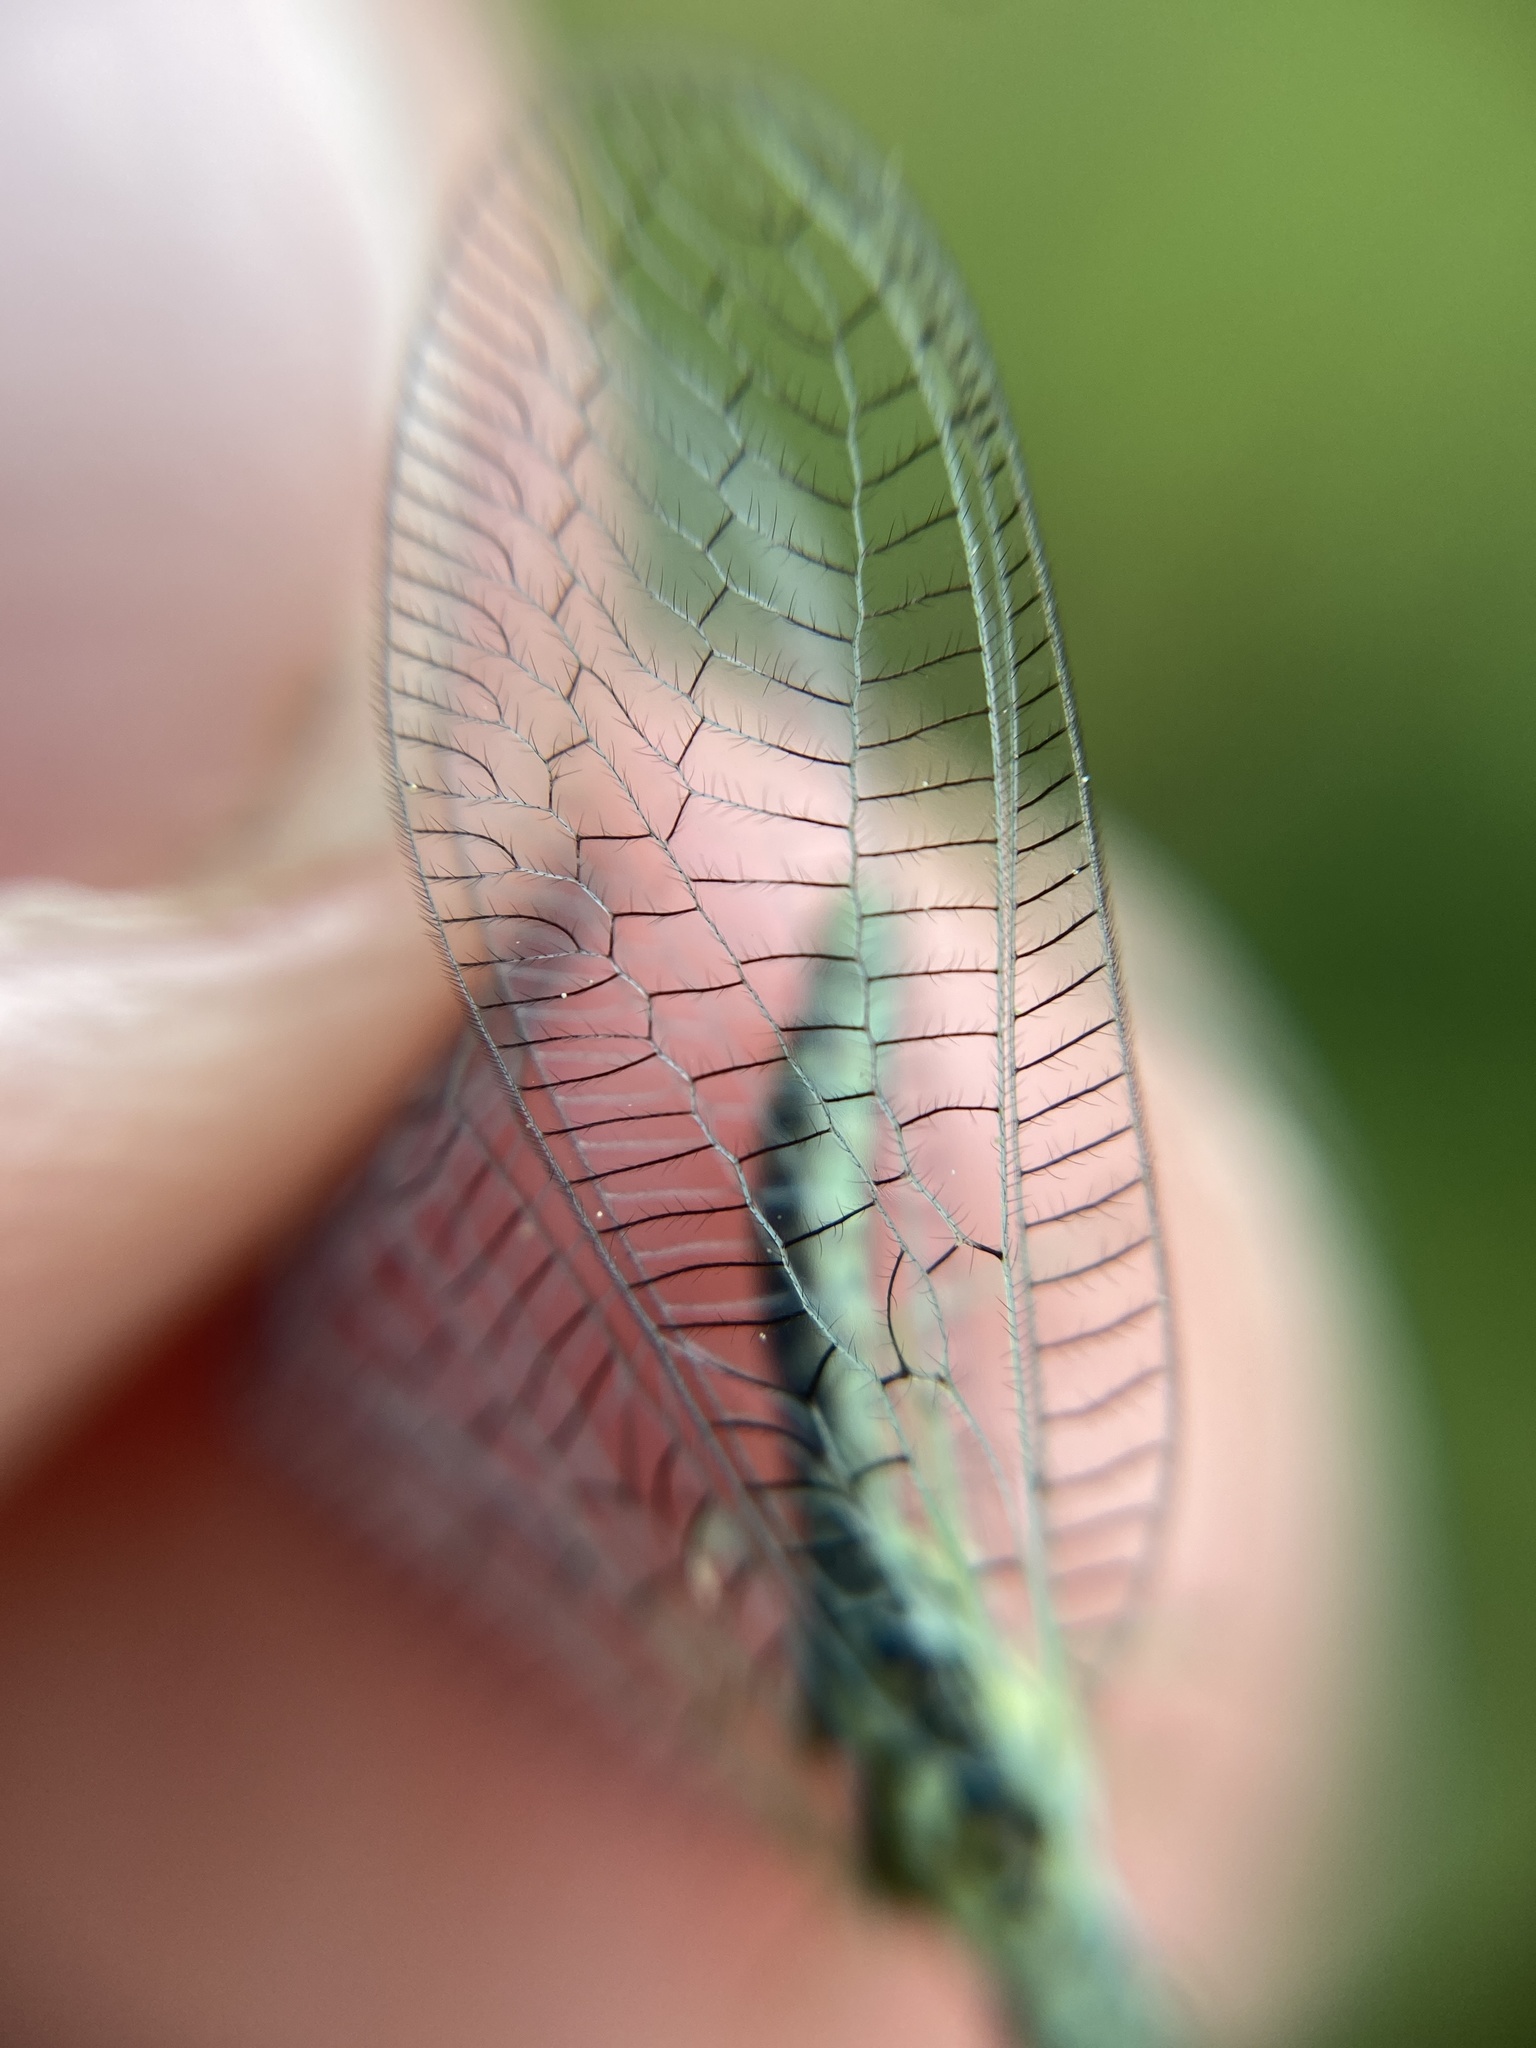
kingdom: Animalia
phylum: Arthropoda
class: Insecta
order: Neuroptera
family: Chrysopidae
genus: Chrysopa
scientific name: Chrysopa perla
